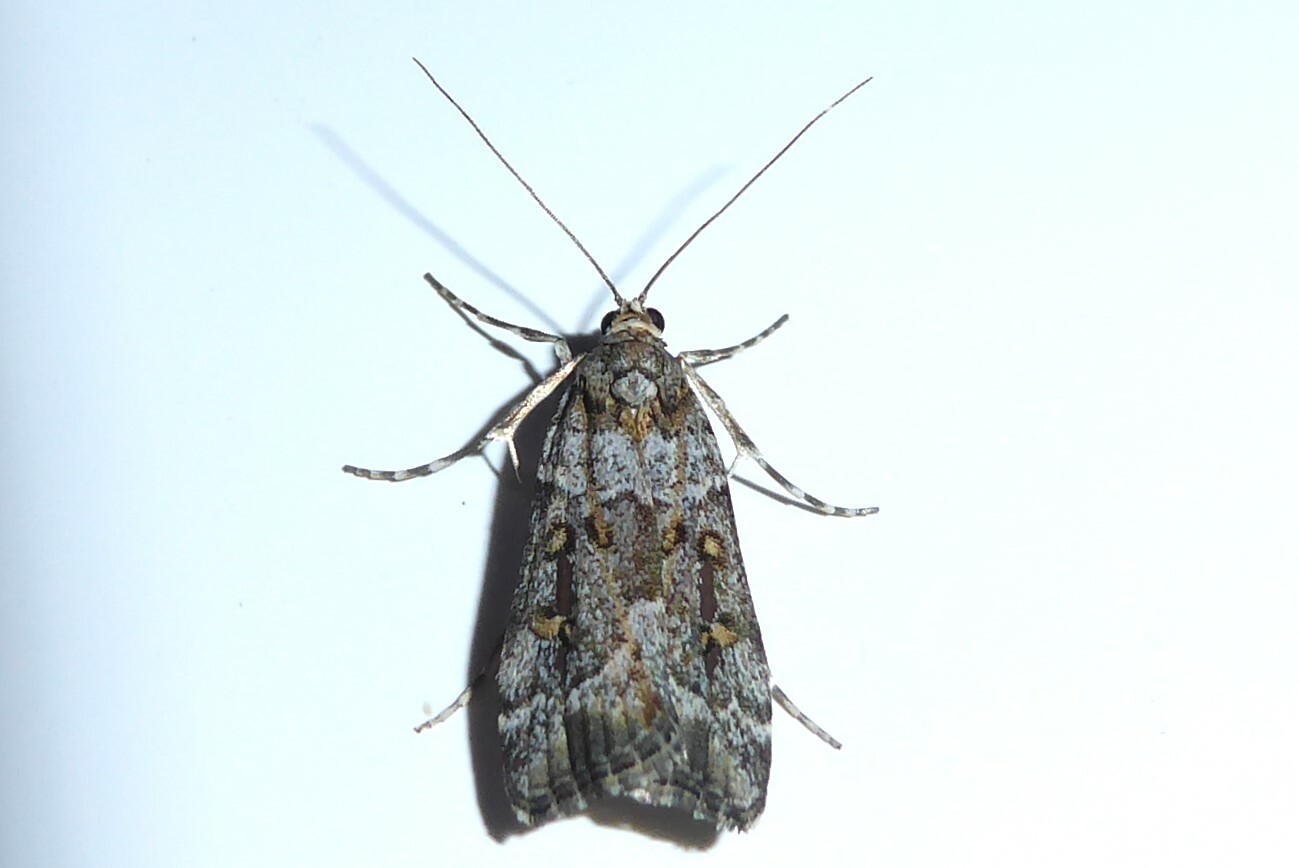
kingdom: Animalia
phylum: Arthropoda
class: Insecta
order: Lepidoptera
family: Crambidae
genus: Scoparia
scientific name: Scoparia tetracycla
